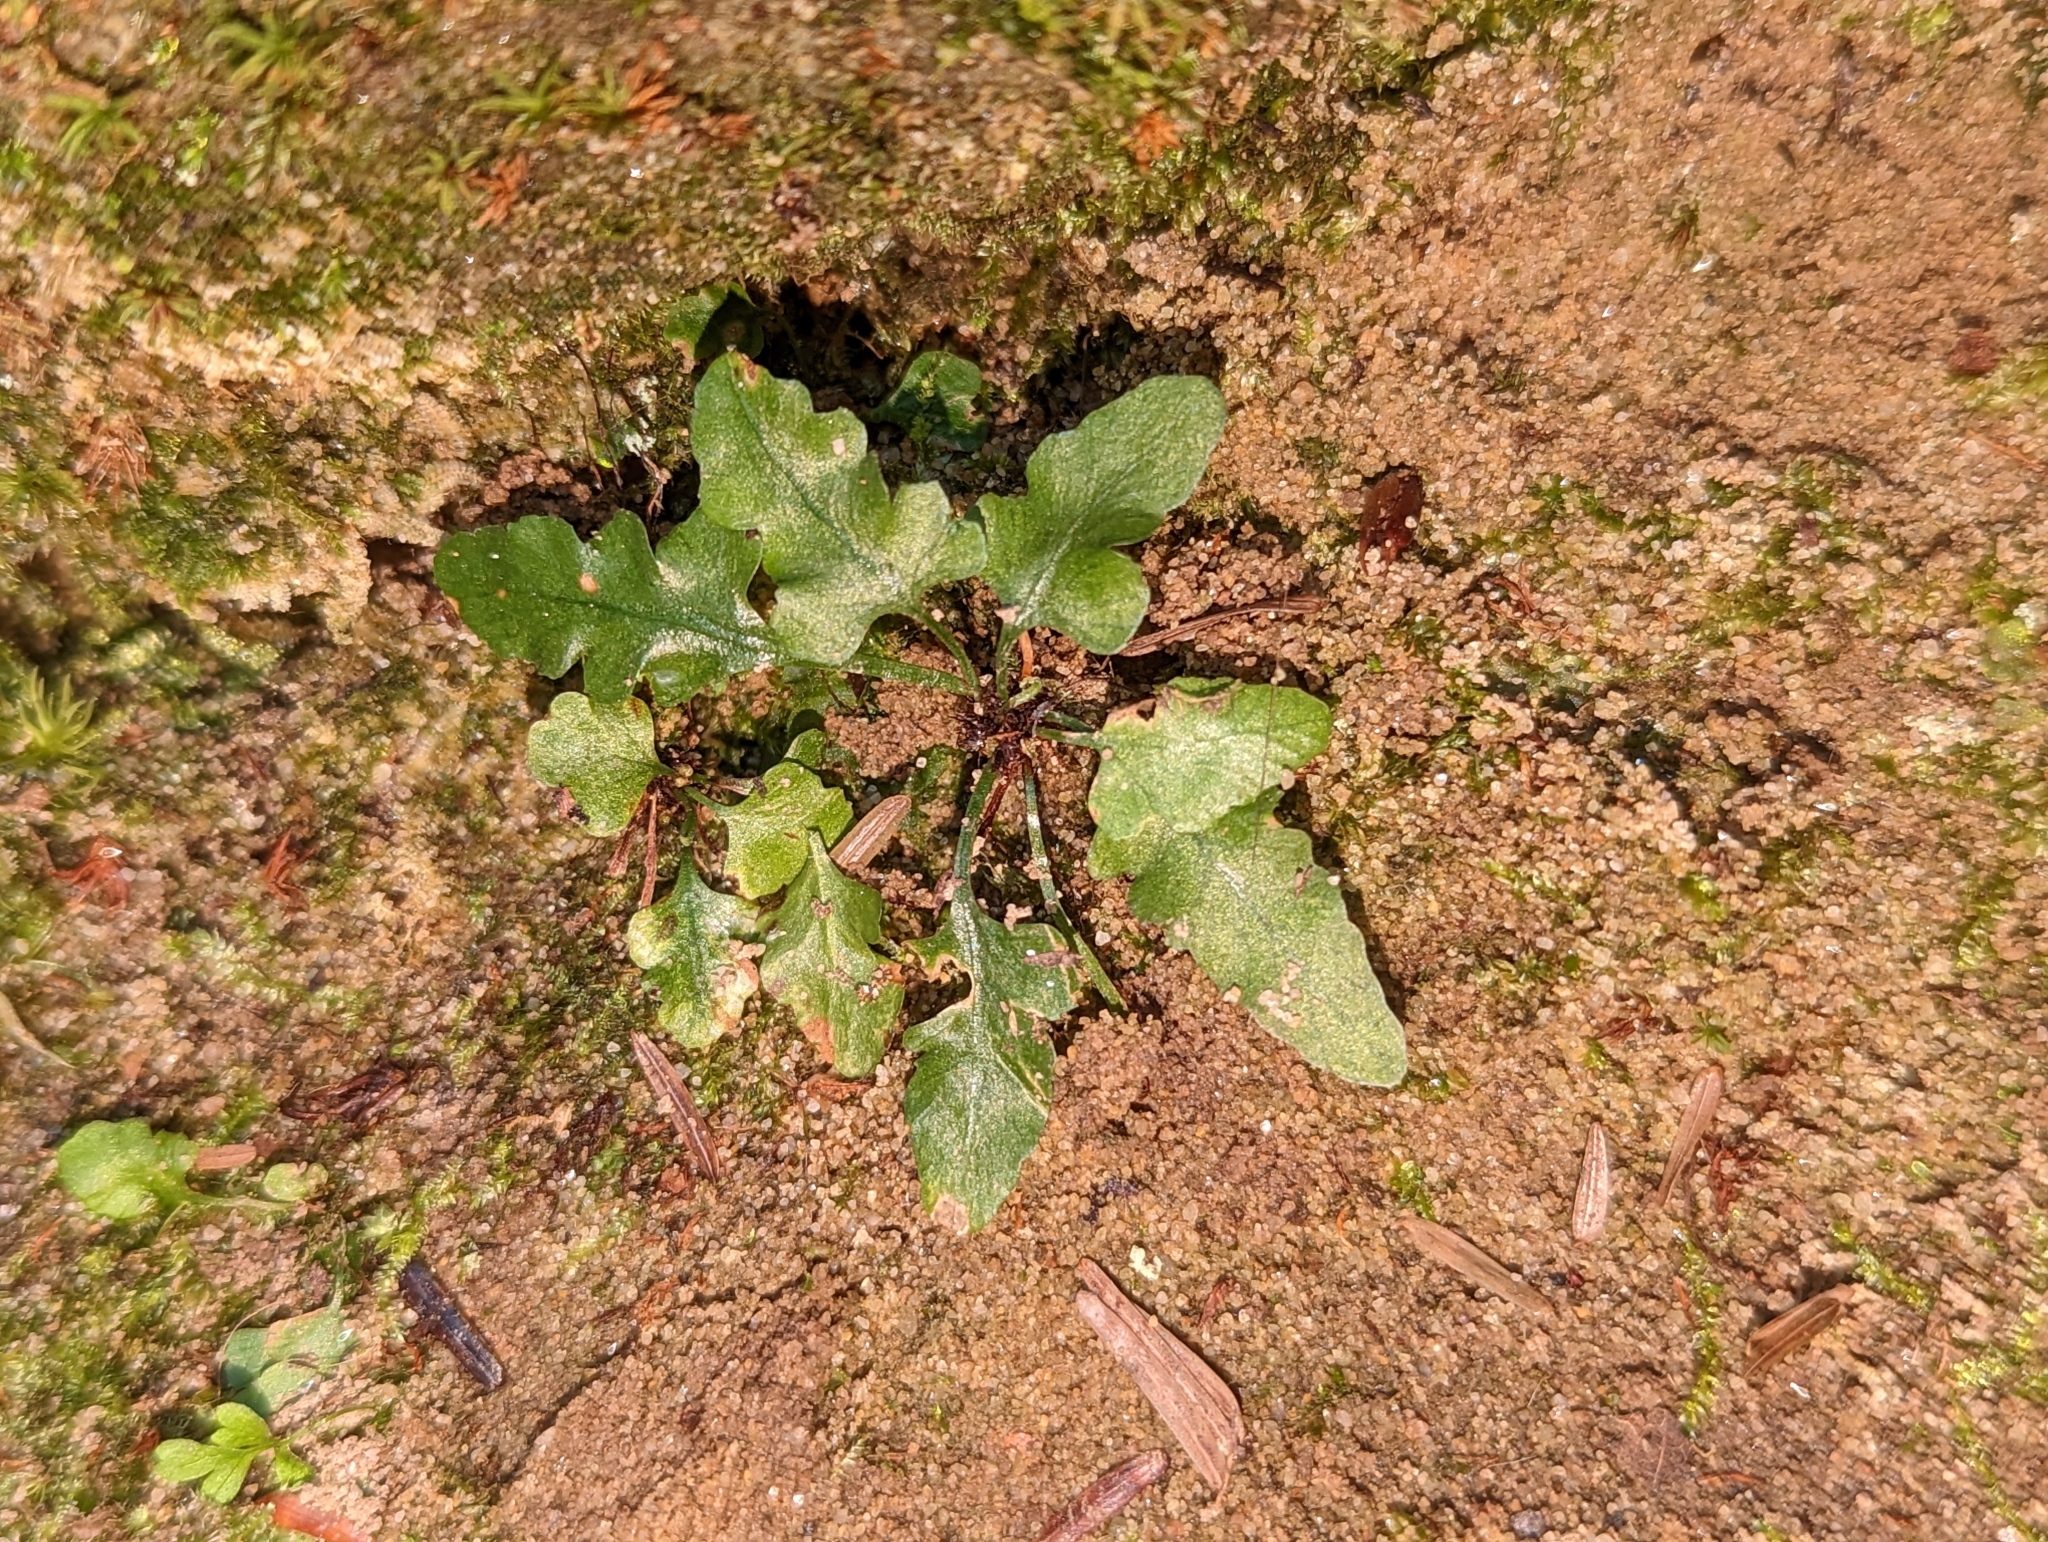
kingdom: Plantae
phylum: Tracheophyta
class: Polypodiopsida
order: Polypodiales
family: Aspleniaceae
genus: Asplenium
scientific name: Asplenium pinnatifidum
